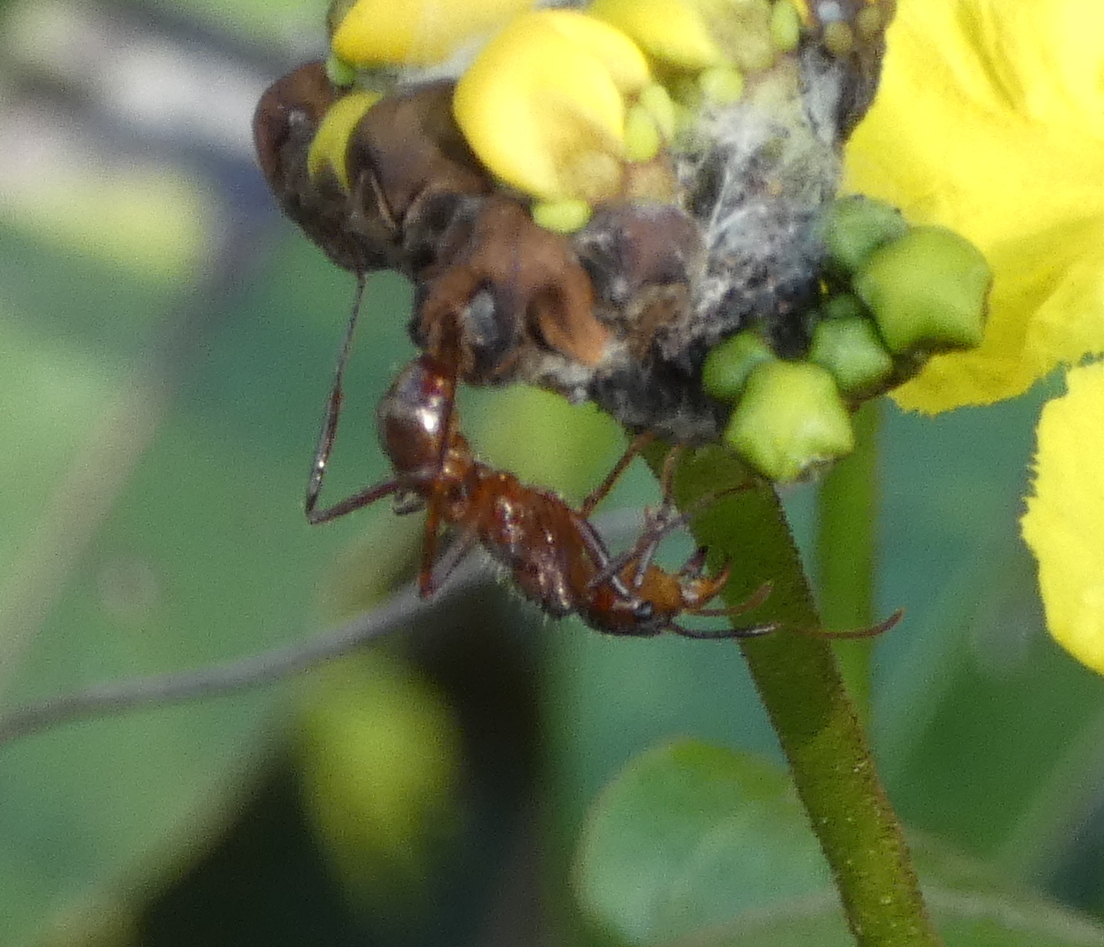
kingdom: Animalia
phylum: Arthropoda
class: Insecta
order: Hymenoptera
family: Formicidae
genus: Ectatomma
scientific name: Ectatomma tuberculatum
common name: Ant
